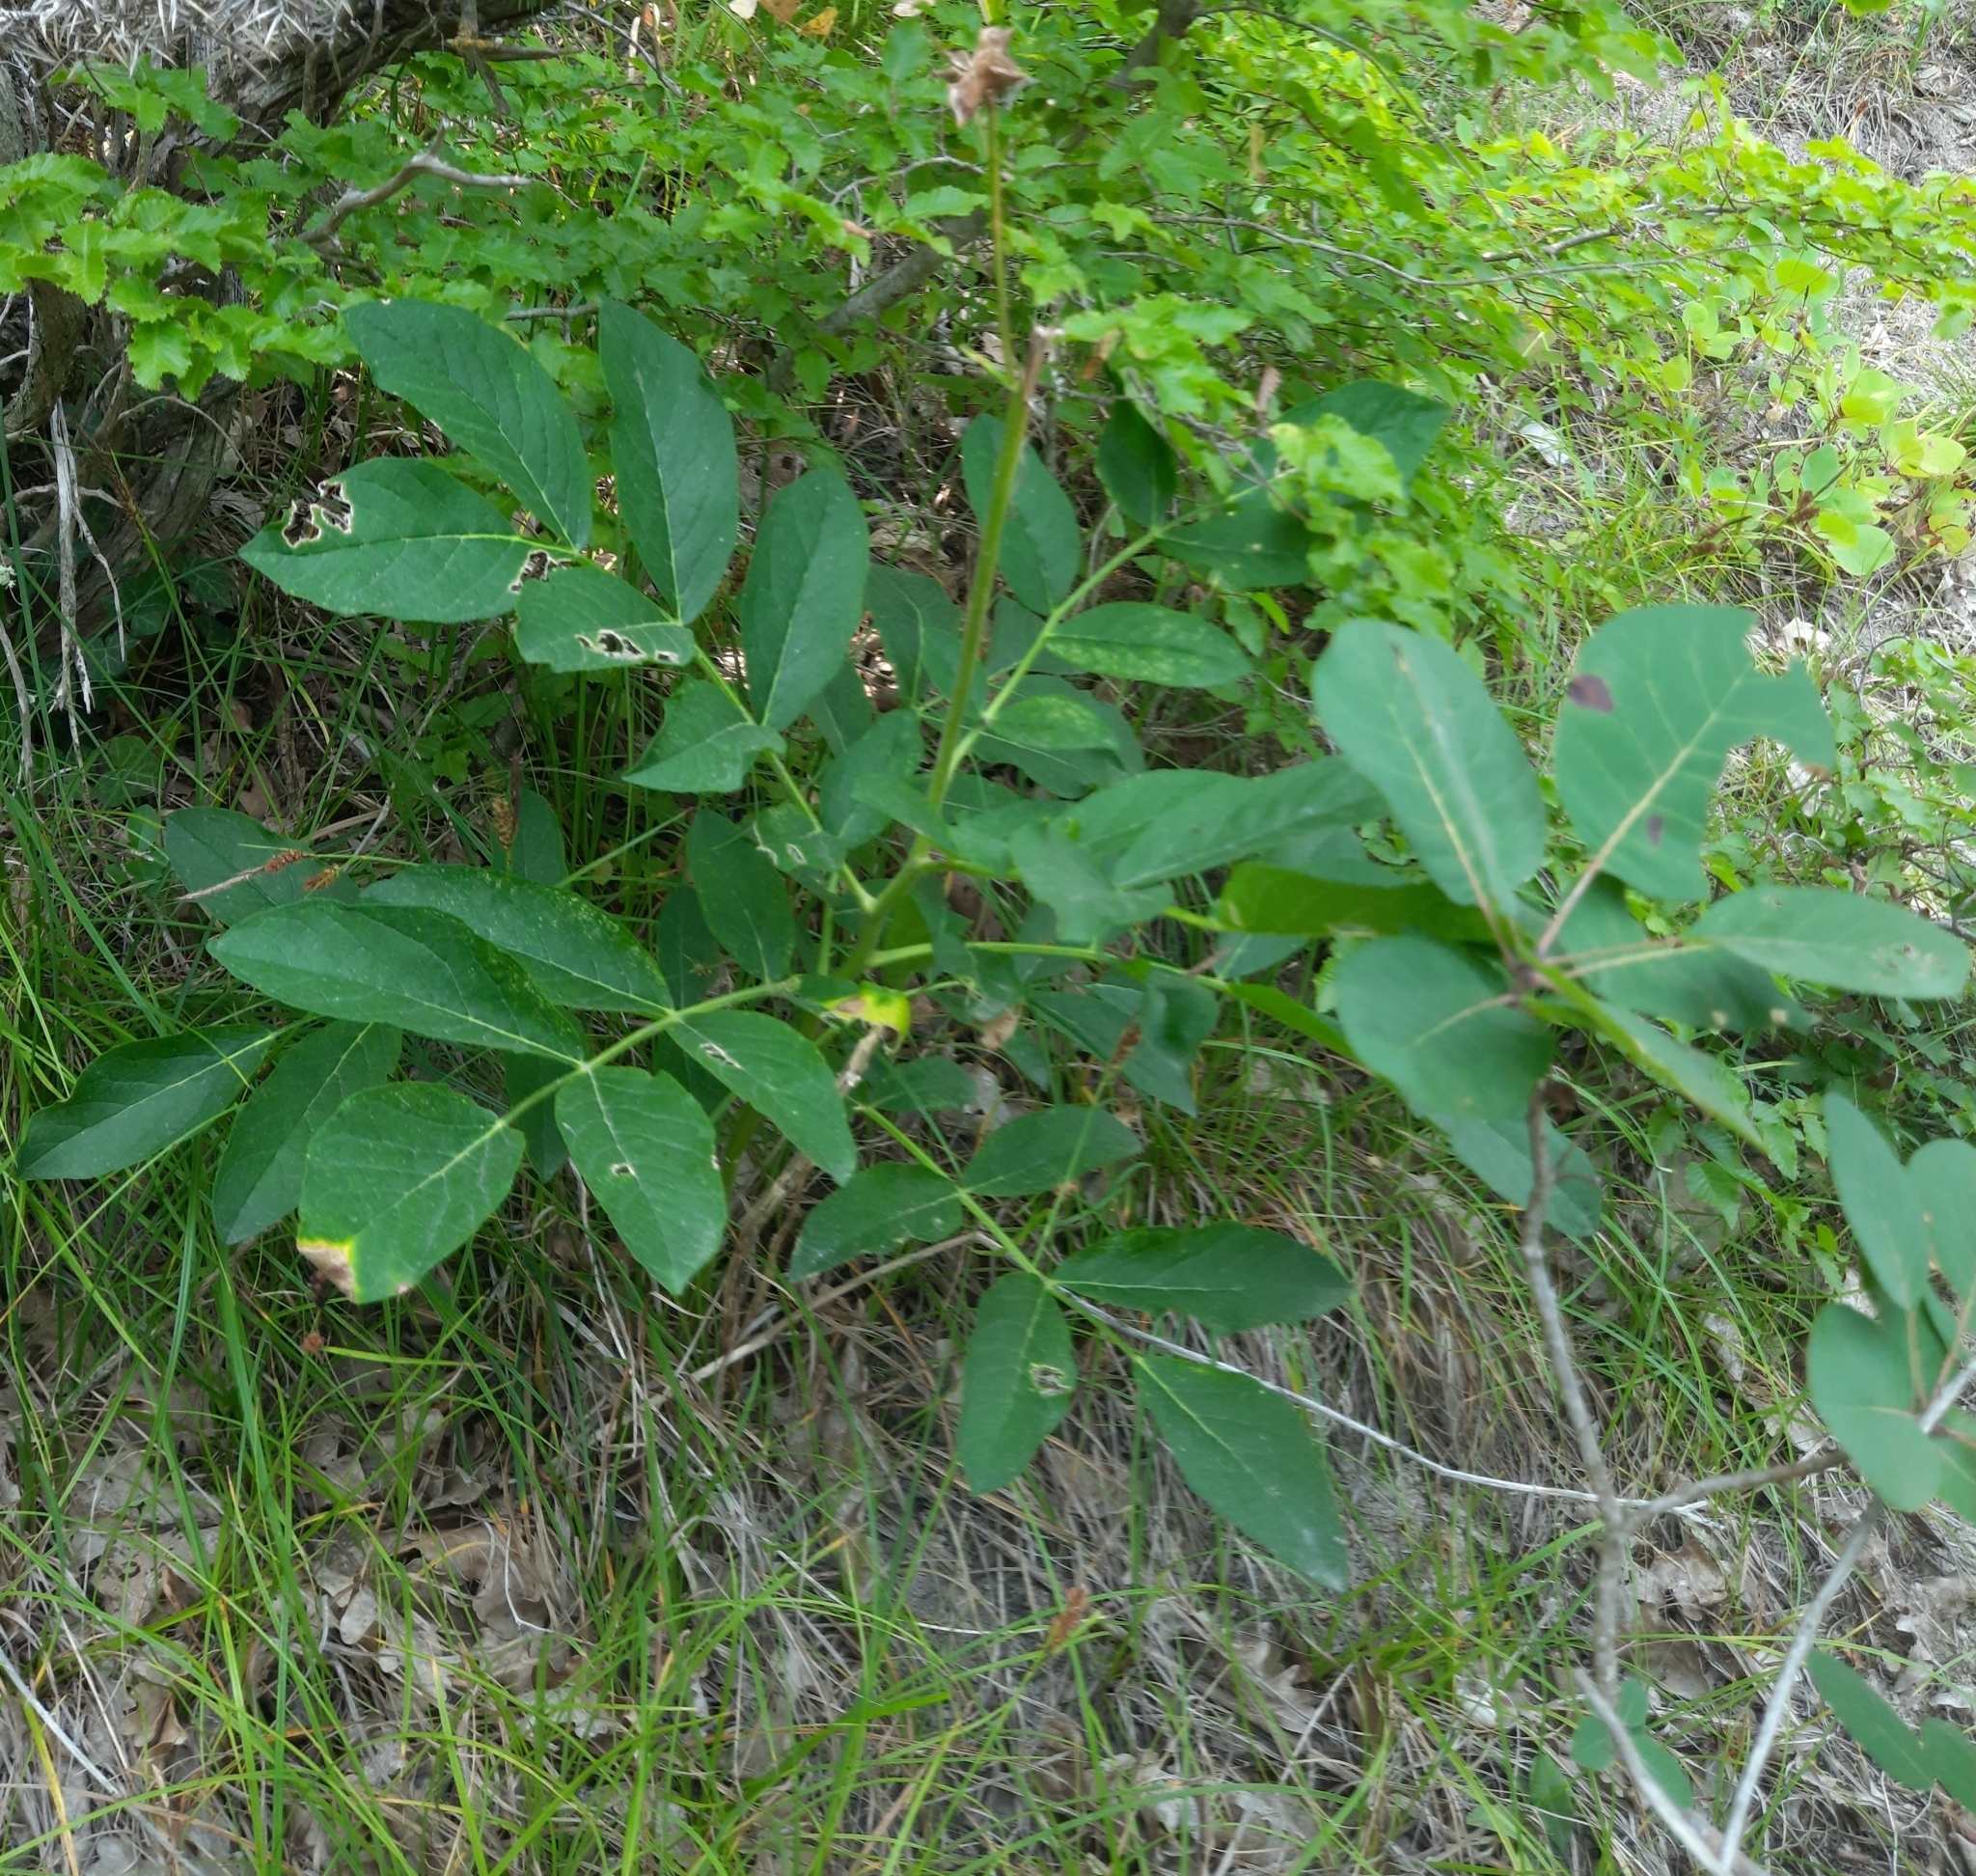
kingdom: Plantae
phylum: Tracheophyta
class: Magnoliopsida
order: Sapindales
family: Rutaceae
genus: Dictamnus
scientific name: Dictamnus albus
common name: Gasplant
